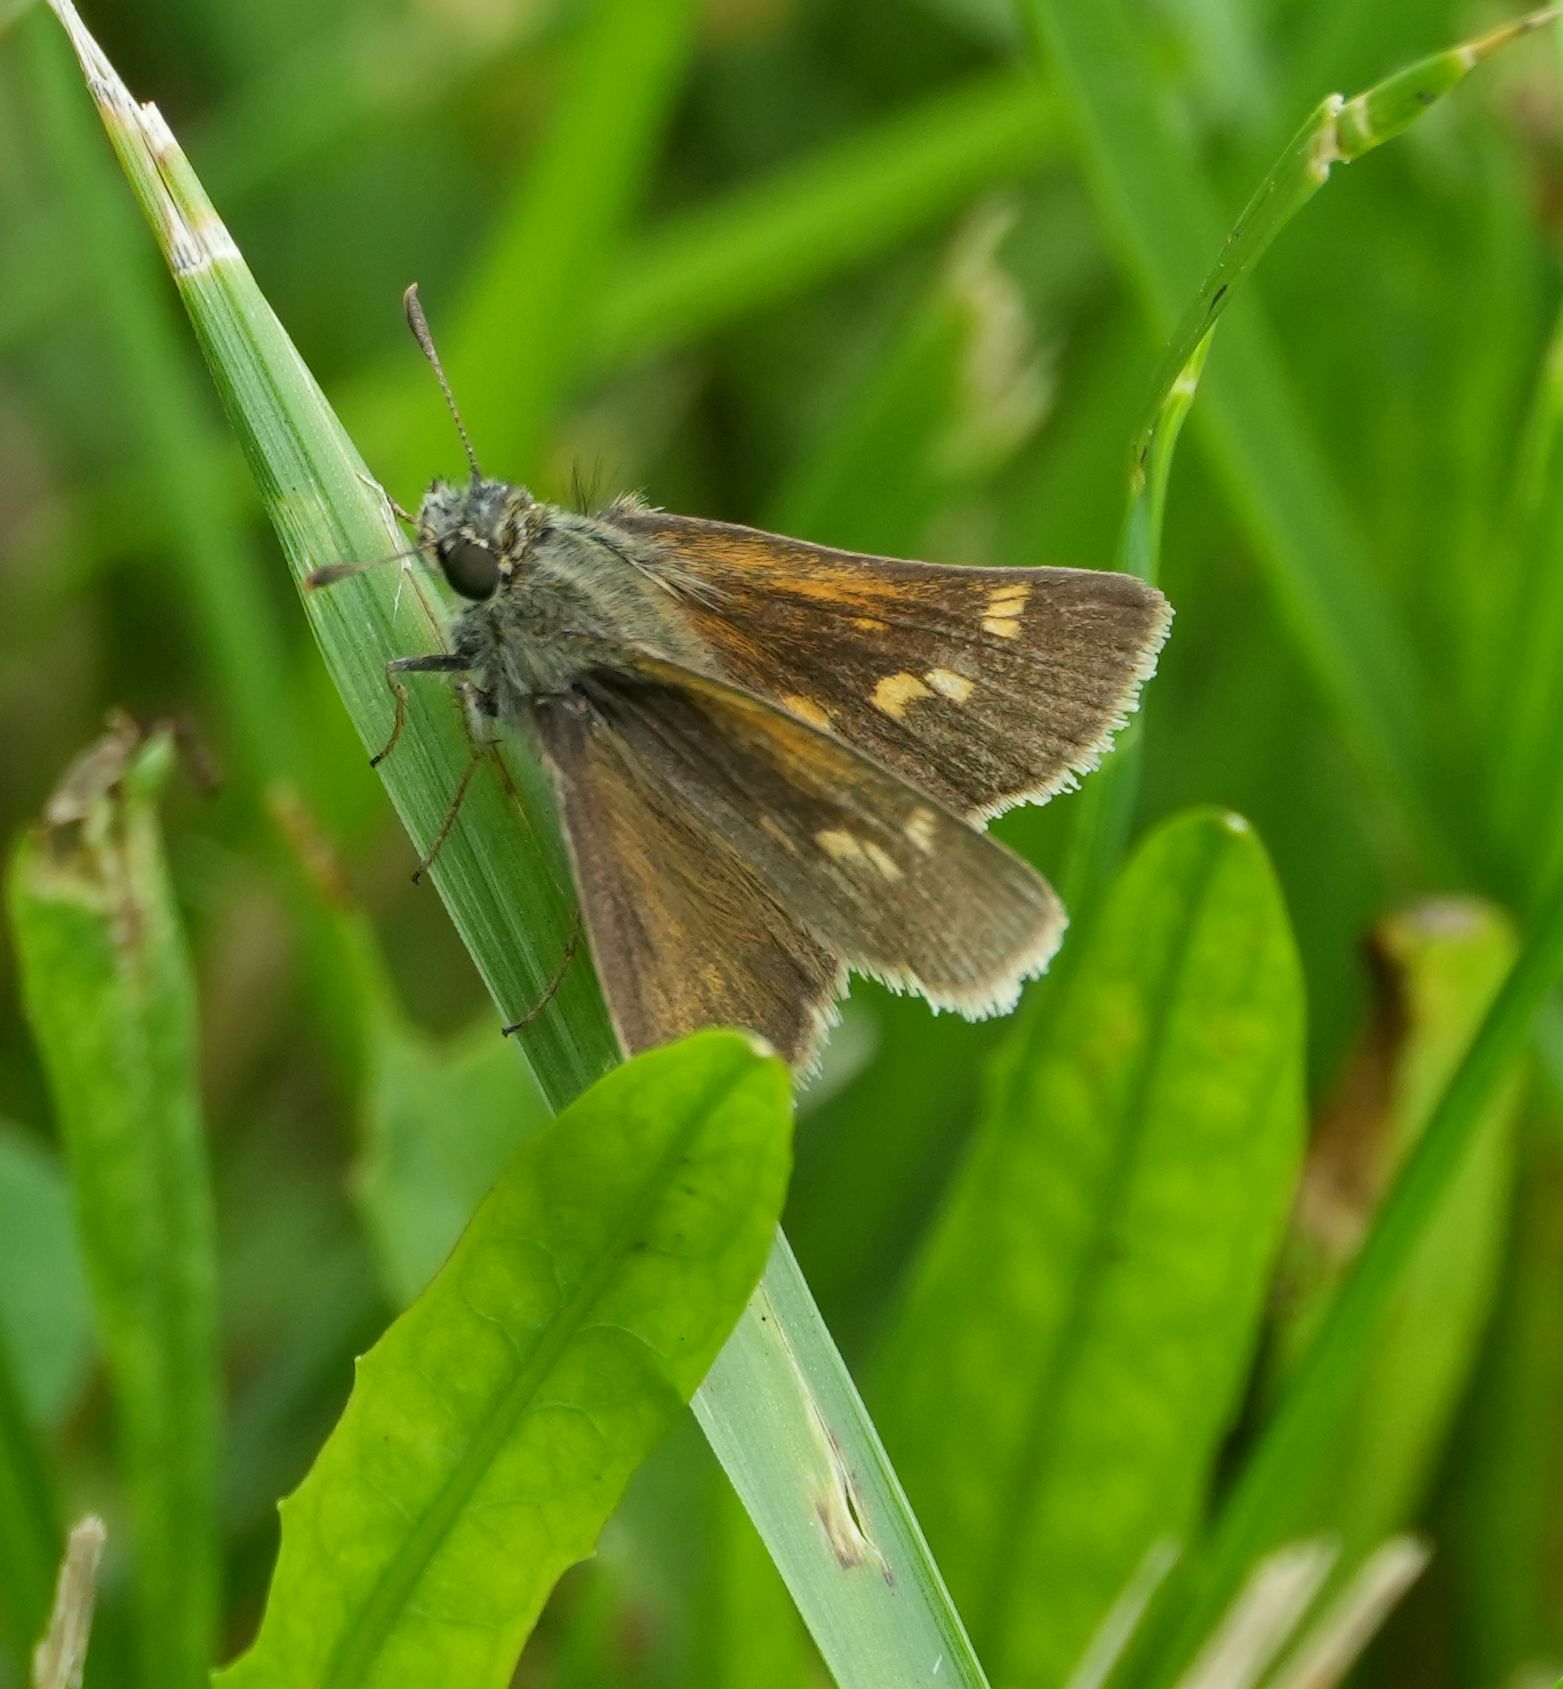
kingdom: Animalia
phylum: Arthropoda
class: Insecta
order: Lepidoptera
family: Hesperiidae
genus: Polites
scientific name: Polites themistocles
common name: Tawny-edged skipper
